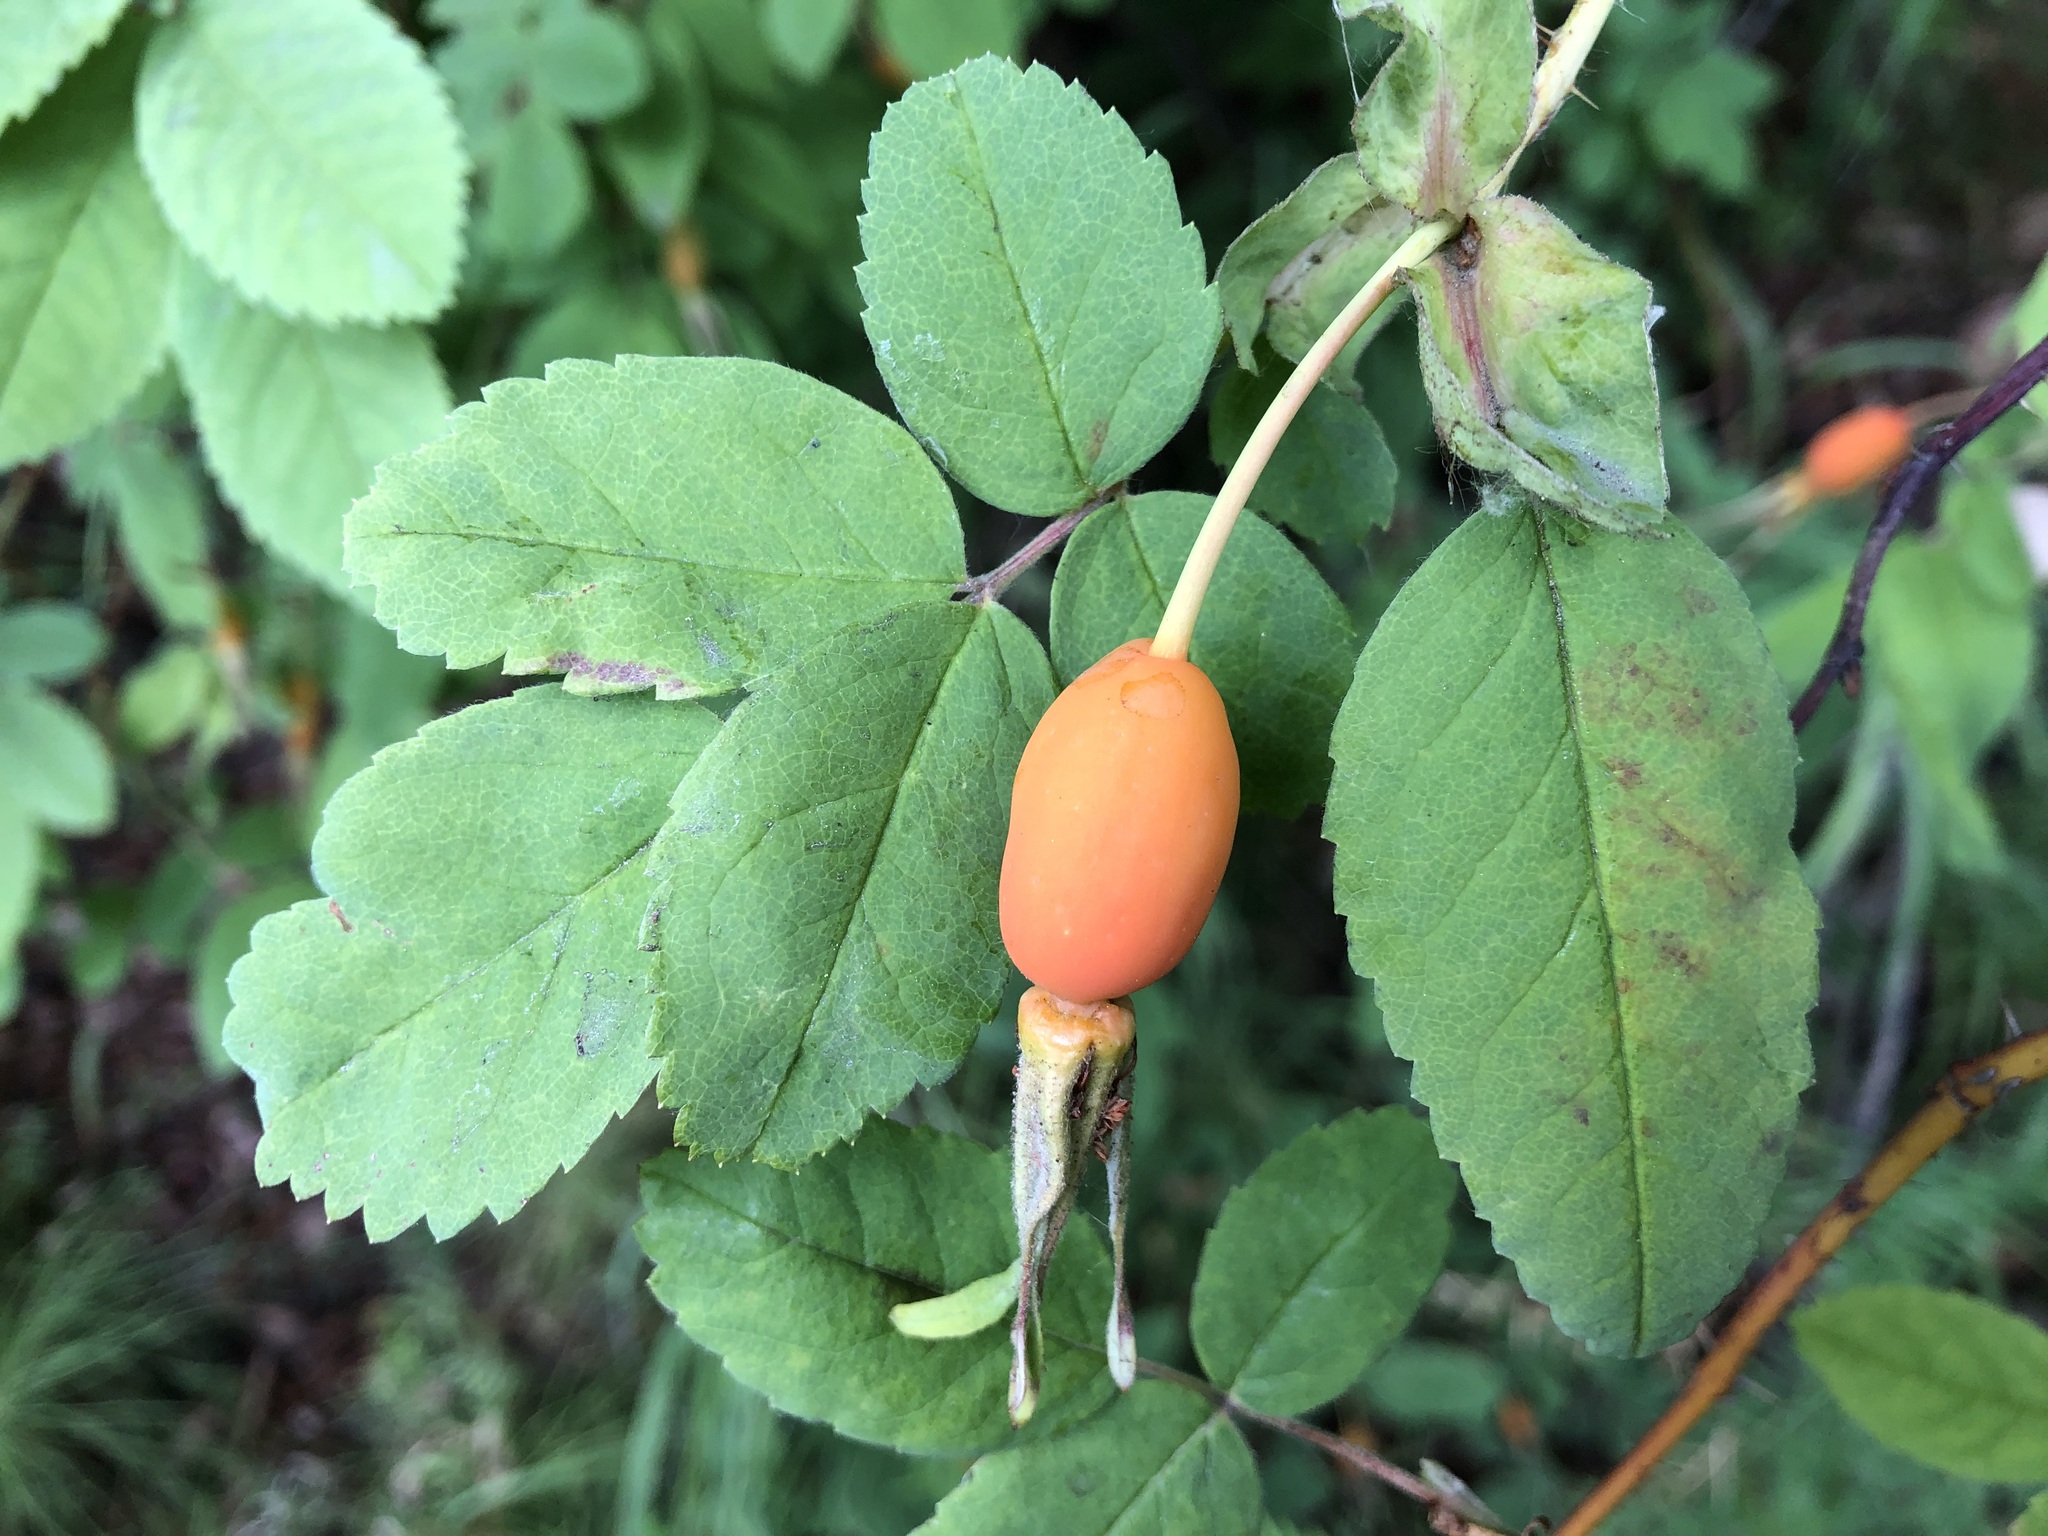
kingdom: Plantae
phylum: Tracheophyta
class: Magnoliopsida
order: Rosales
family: Rosaceae
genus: Rosa
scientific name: Rosa acicularis
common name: Prickly rose
